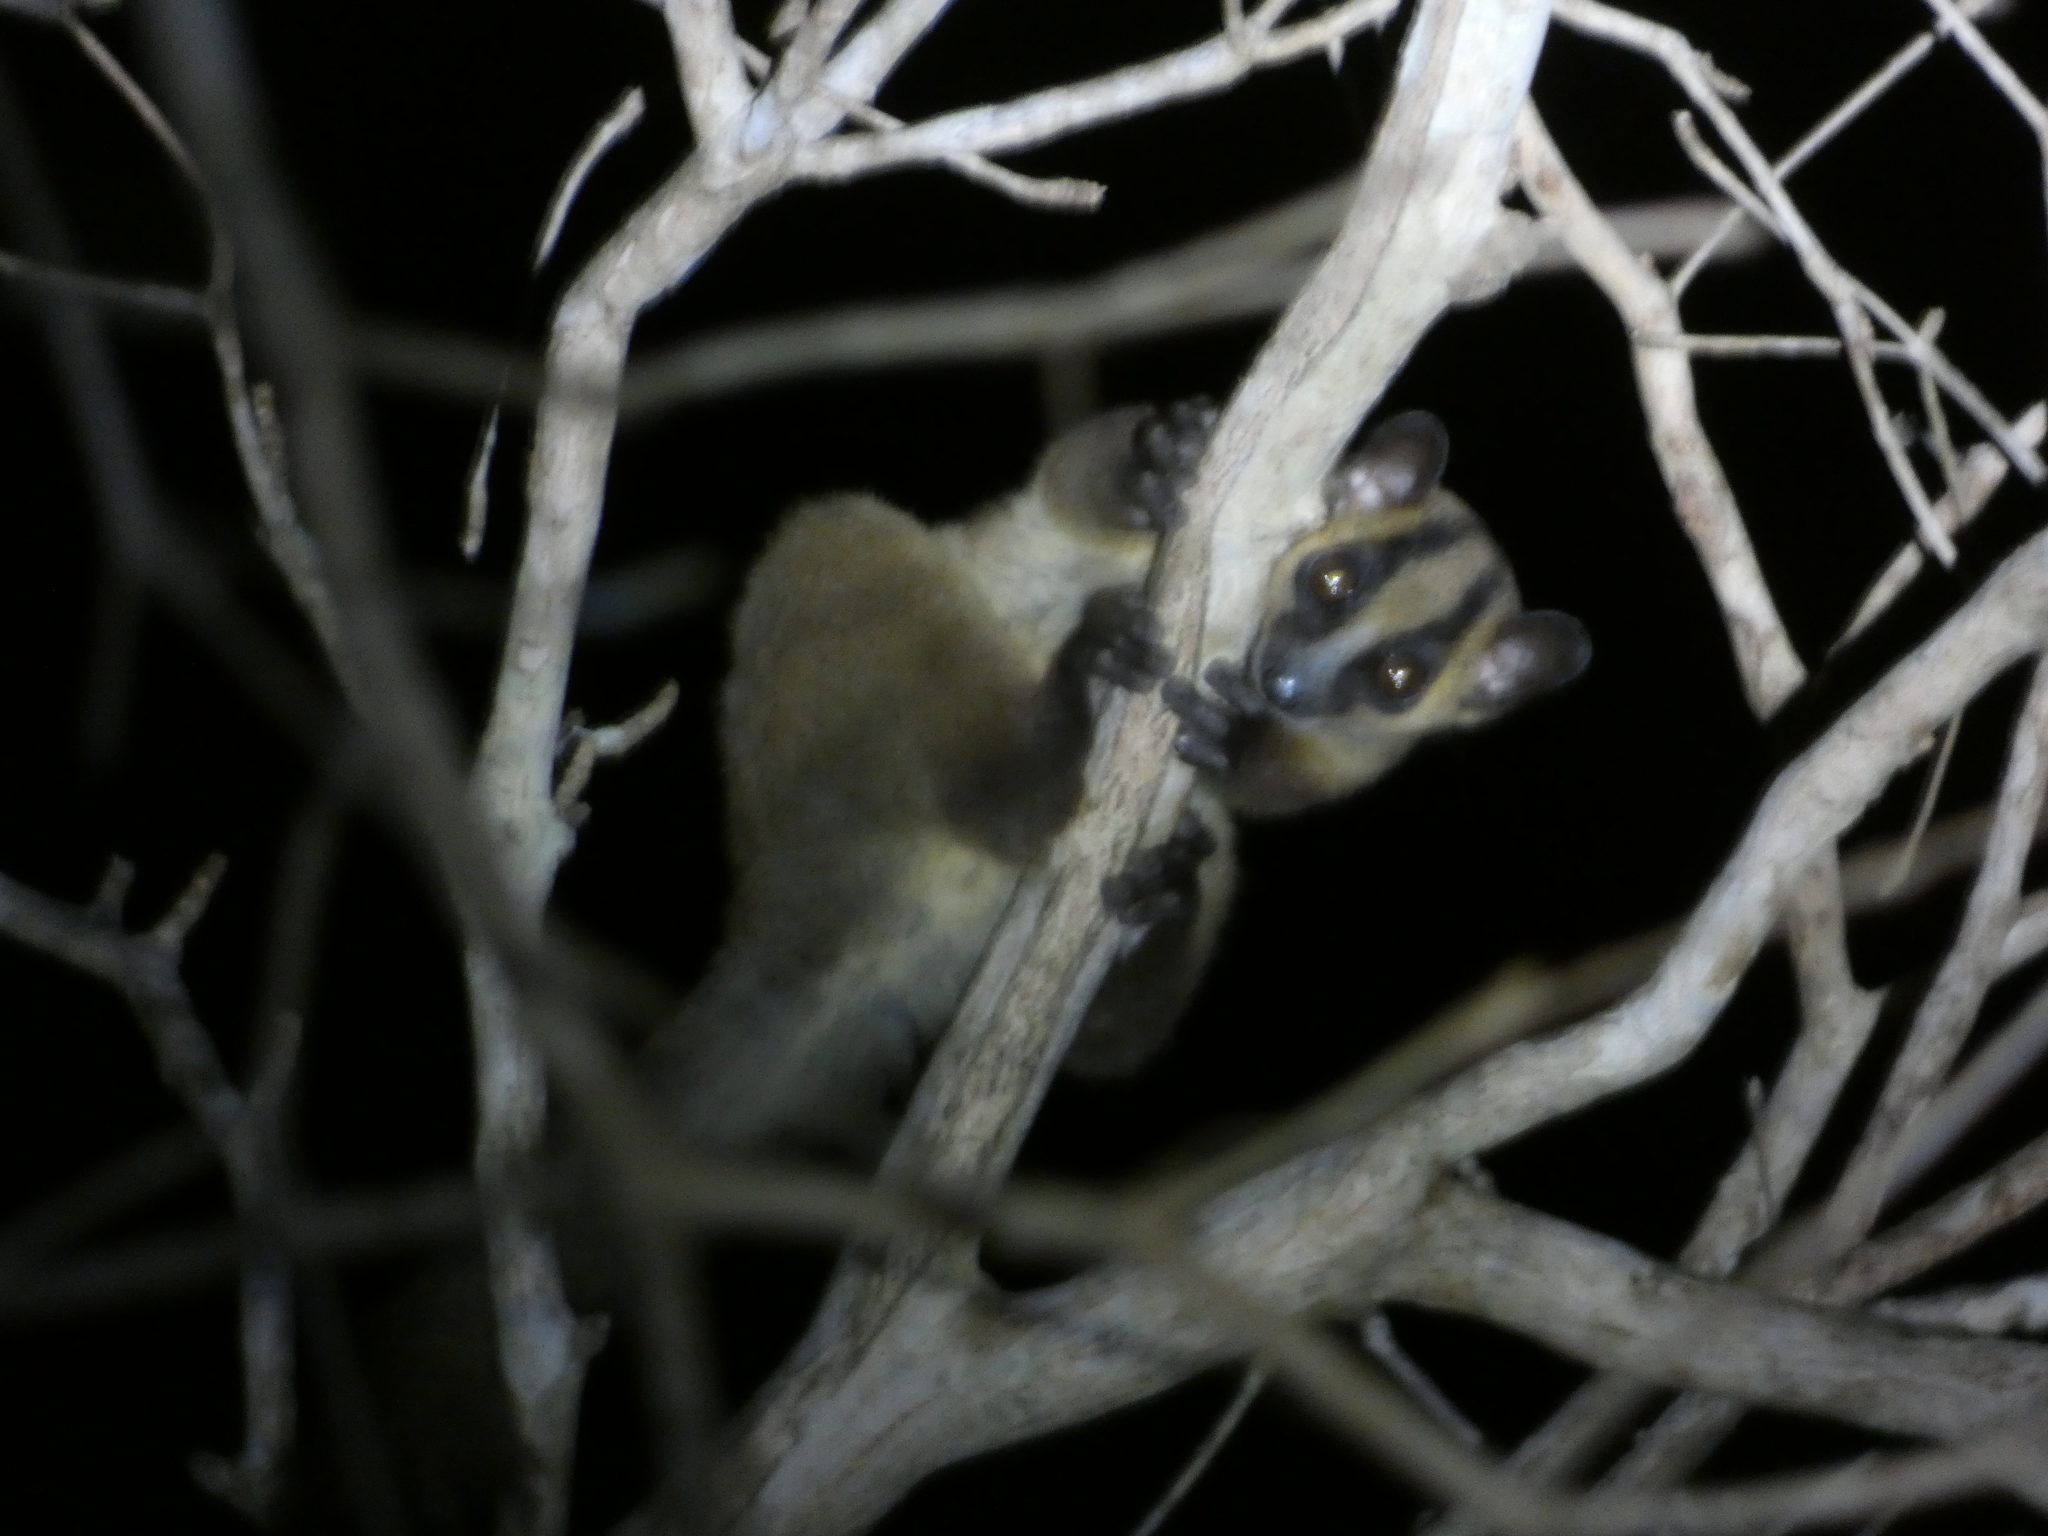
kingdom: Animalia
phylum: Chordata
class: Mammalia
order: Primates
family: Cheirogaleidae
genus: Phaner
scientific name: Phaner pallescens
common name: Pale fork-marked lemur
